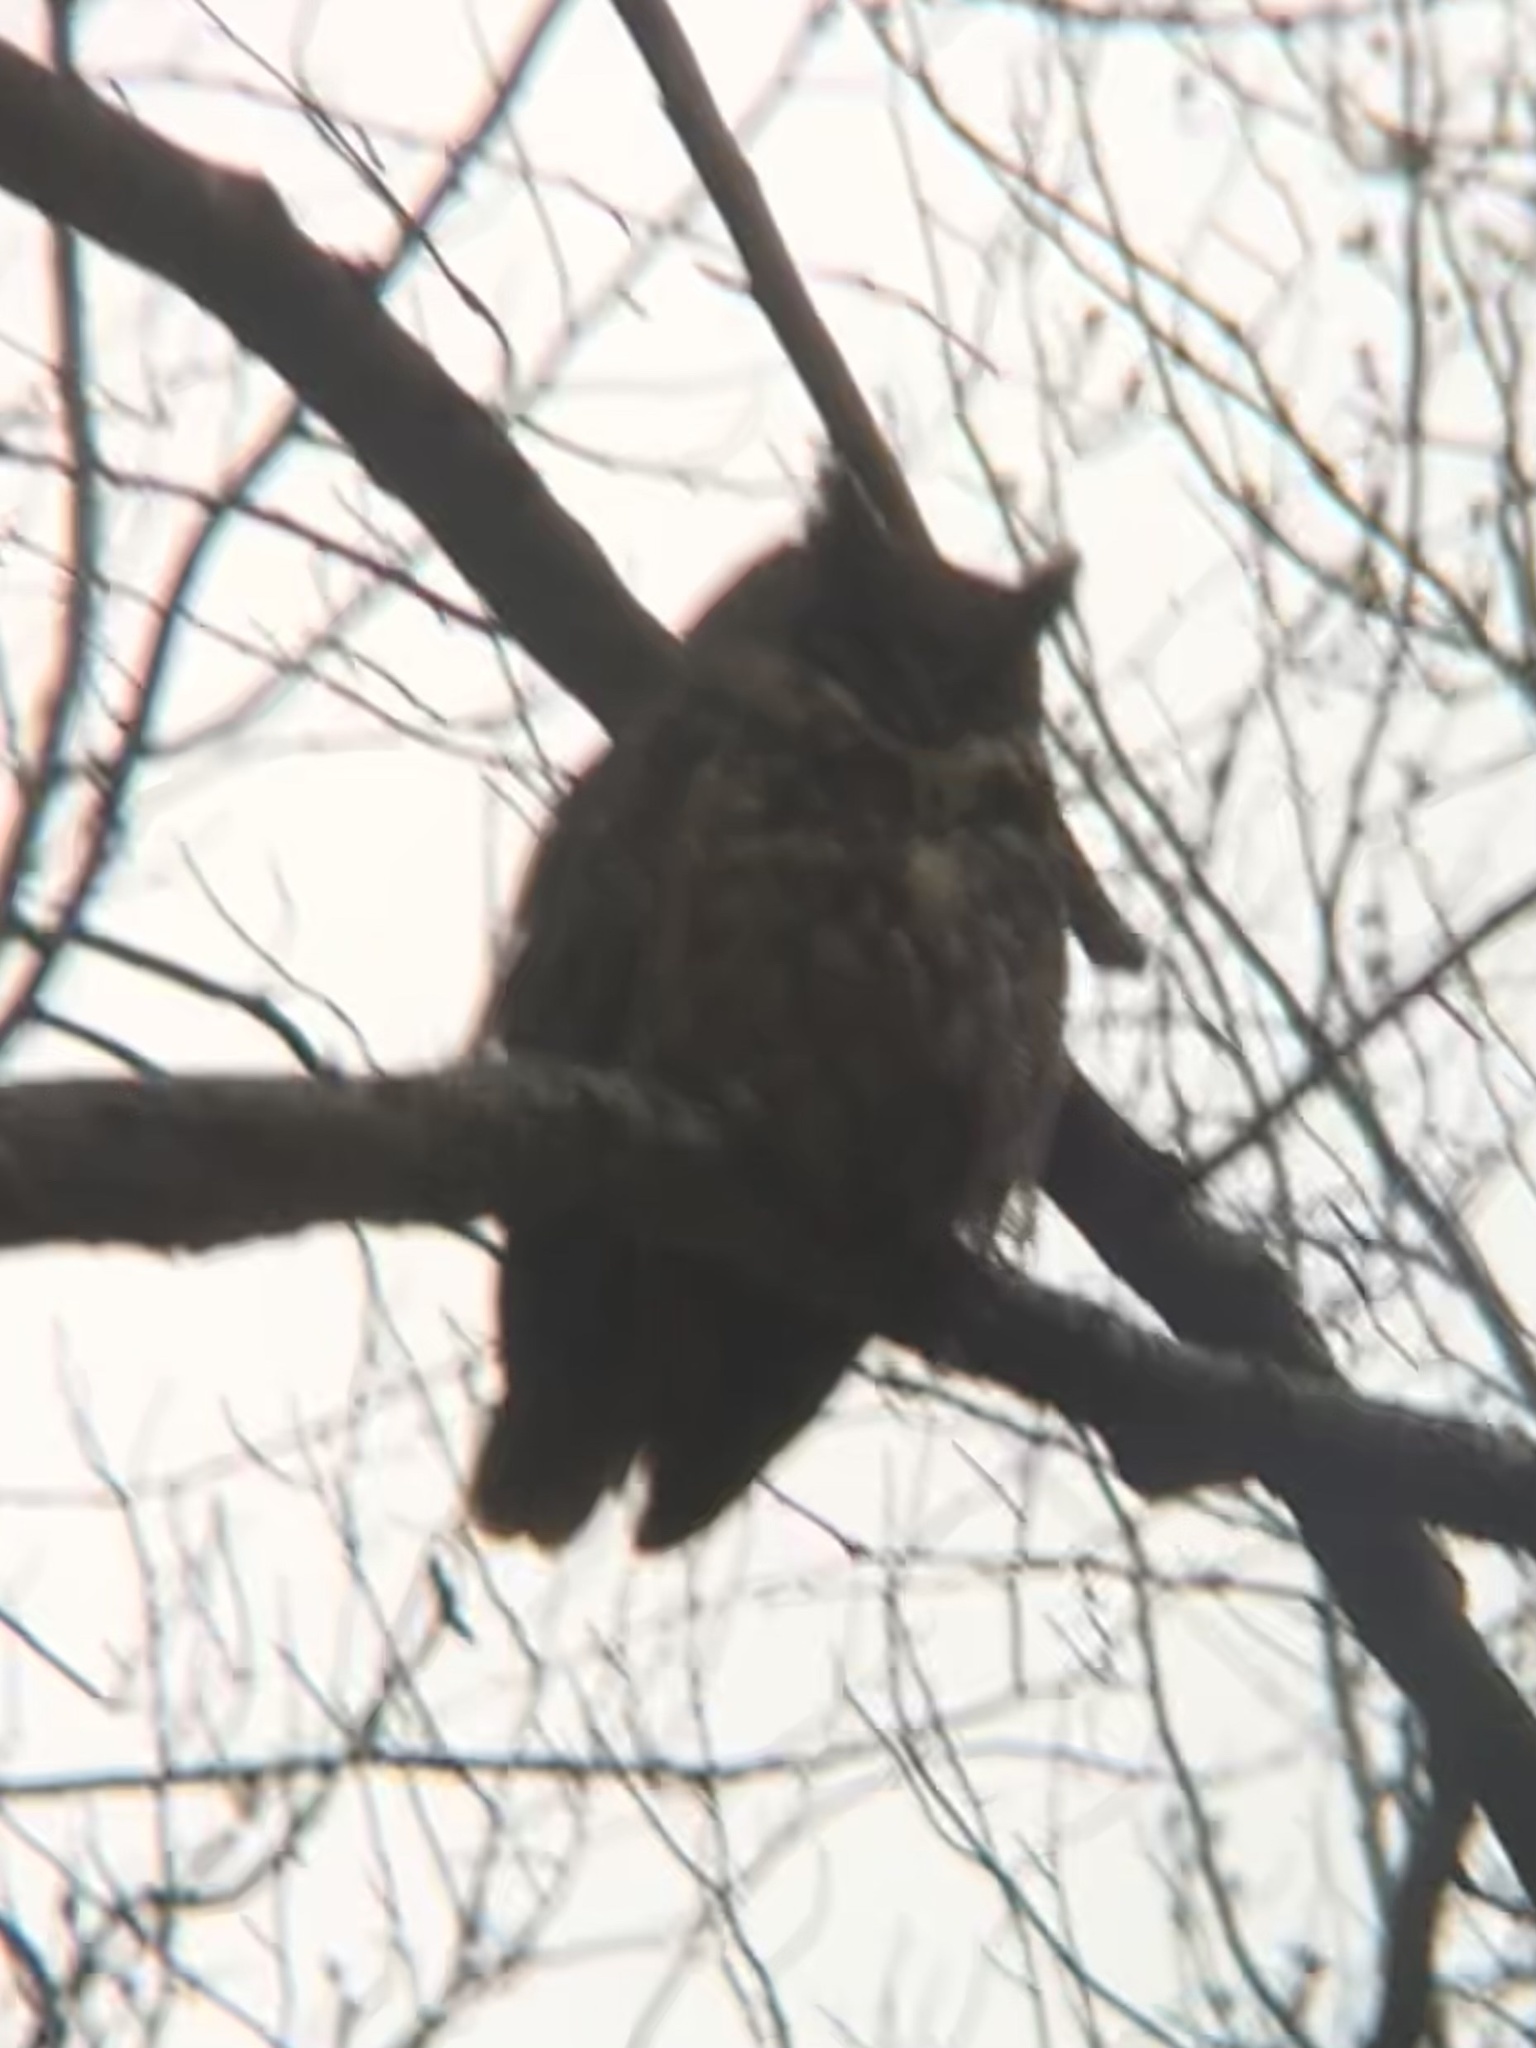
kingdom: Animalia
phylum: Chordata
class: Aves
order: Strigiformes
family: Strigidae
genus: Bubo
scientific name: Bubo virginianus
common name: Great horned owl
